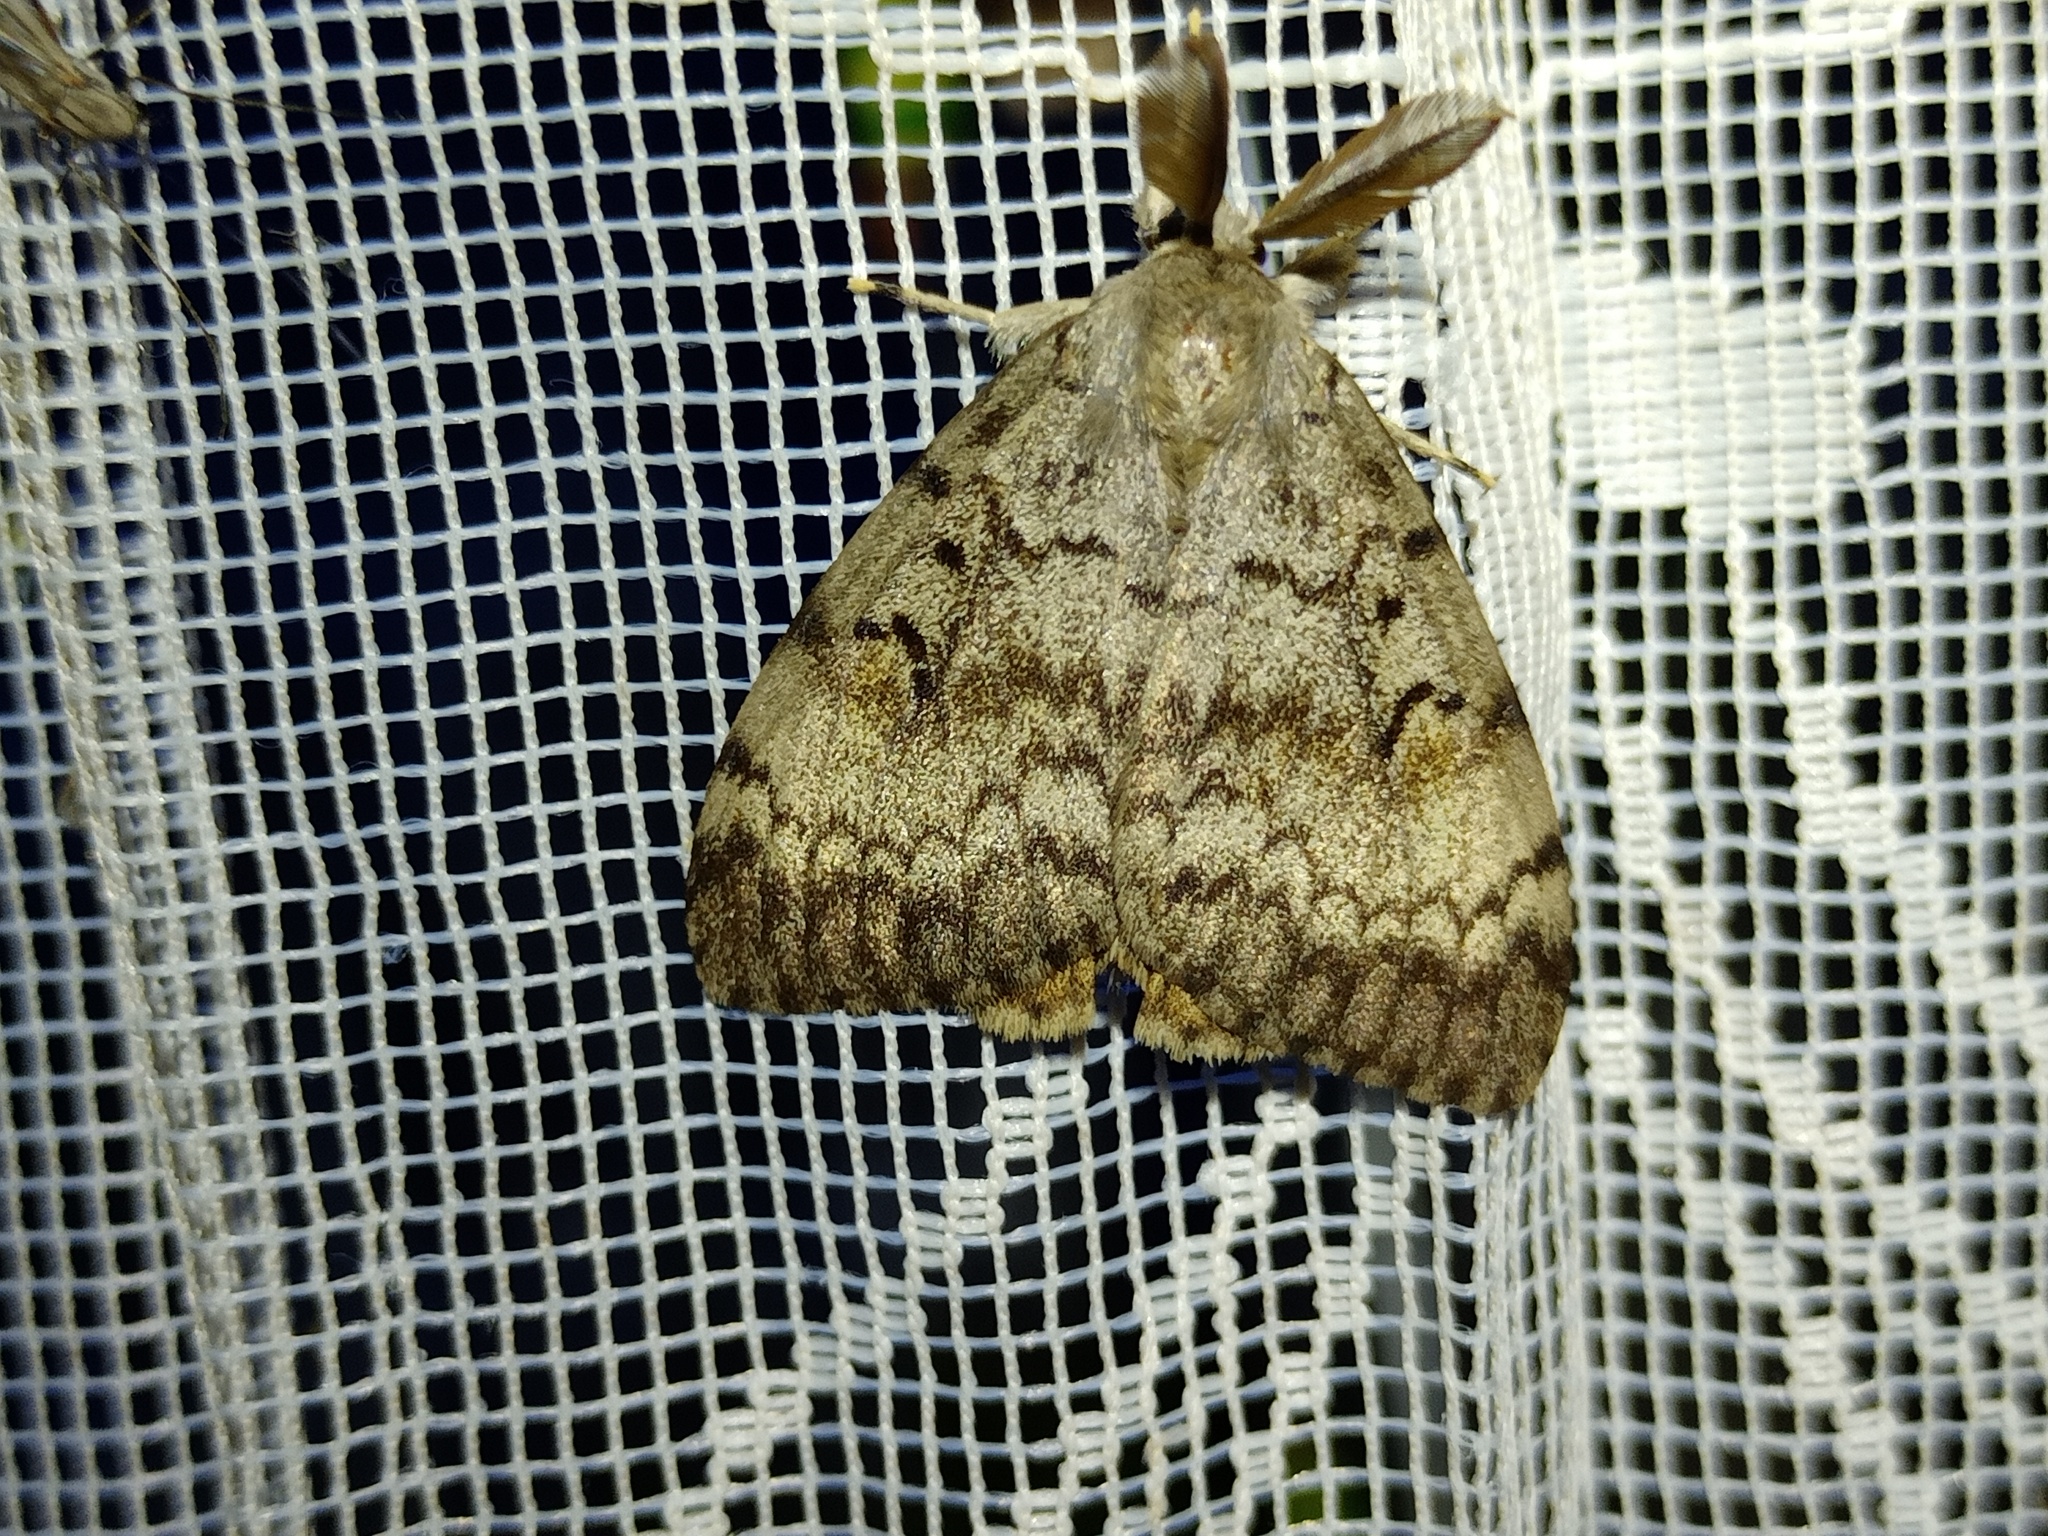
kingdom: Animalia
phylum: Arthropoda
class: Insecta
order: Lepidoptera
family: Erebidae
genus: Lymantria
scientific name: Lymantria dispar
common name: Gypsy moth
